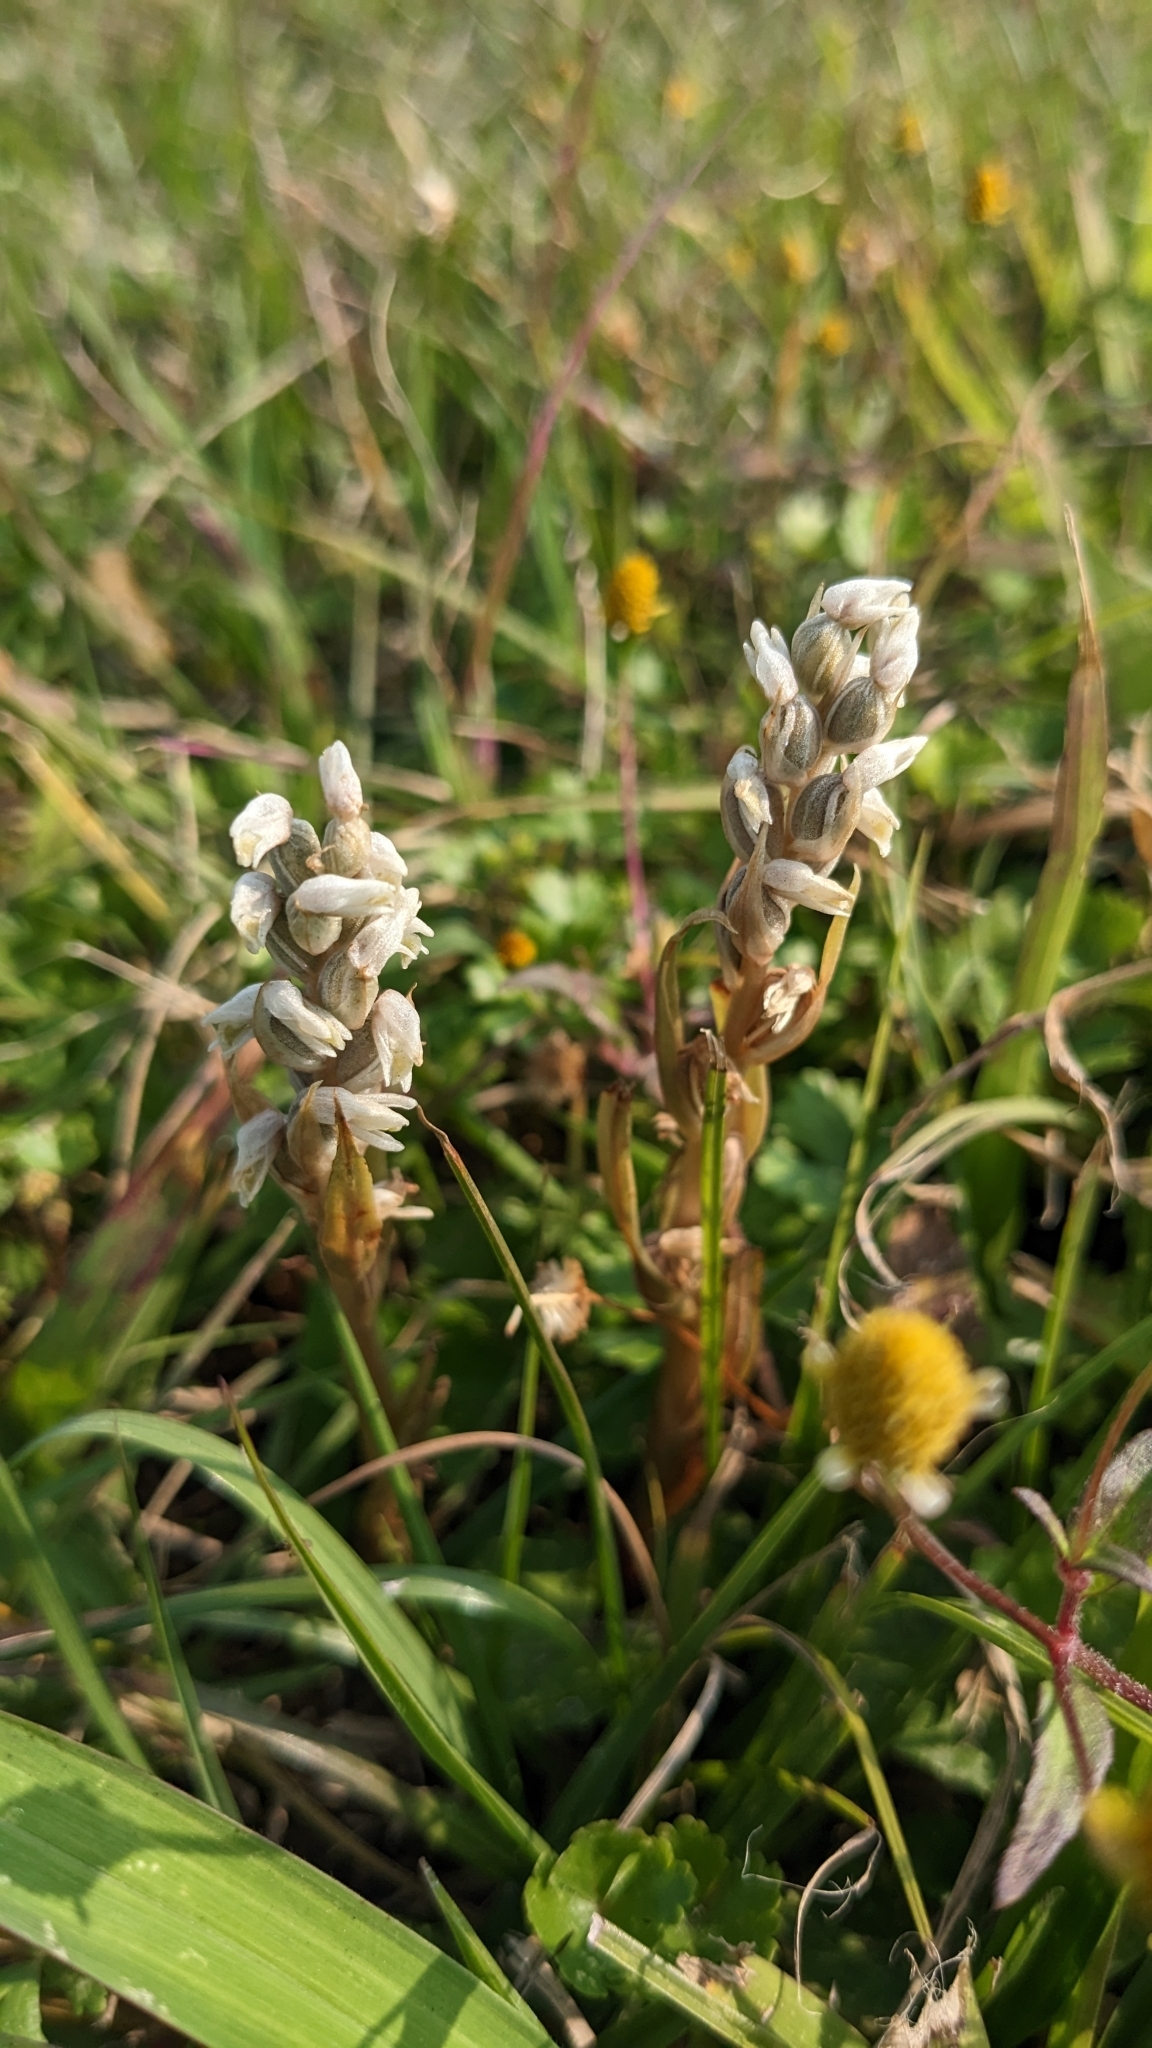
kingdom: Plantae
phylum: Tracheophyta
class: Liliopsida
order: Asparagales
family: Orchidaceae
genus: Zeuxine
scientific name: Zeuxine strateumatica
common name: Soldier's orchid
